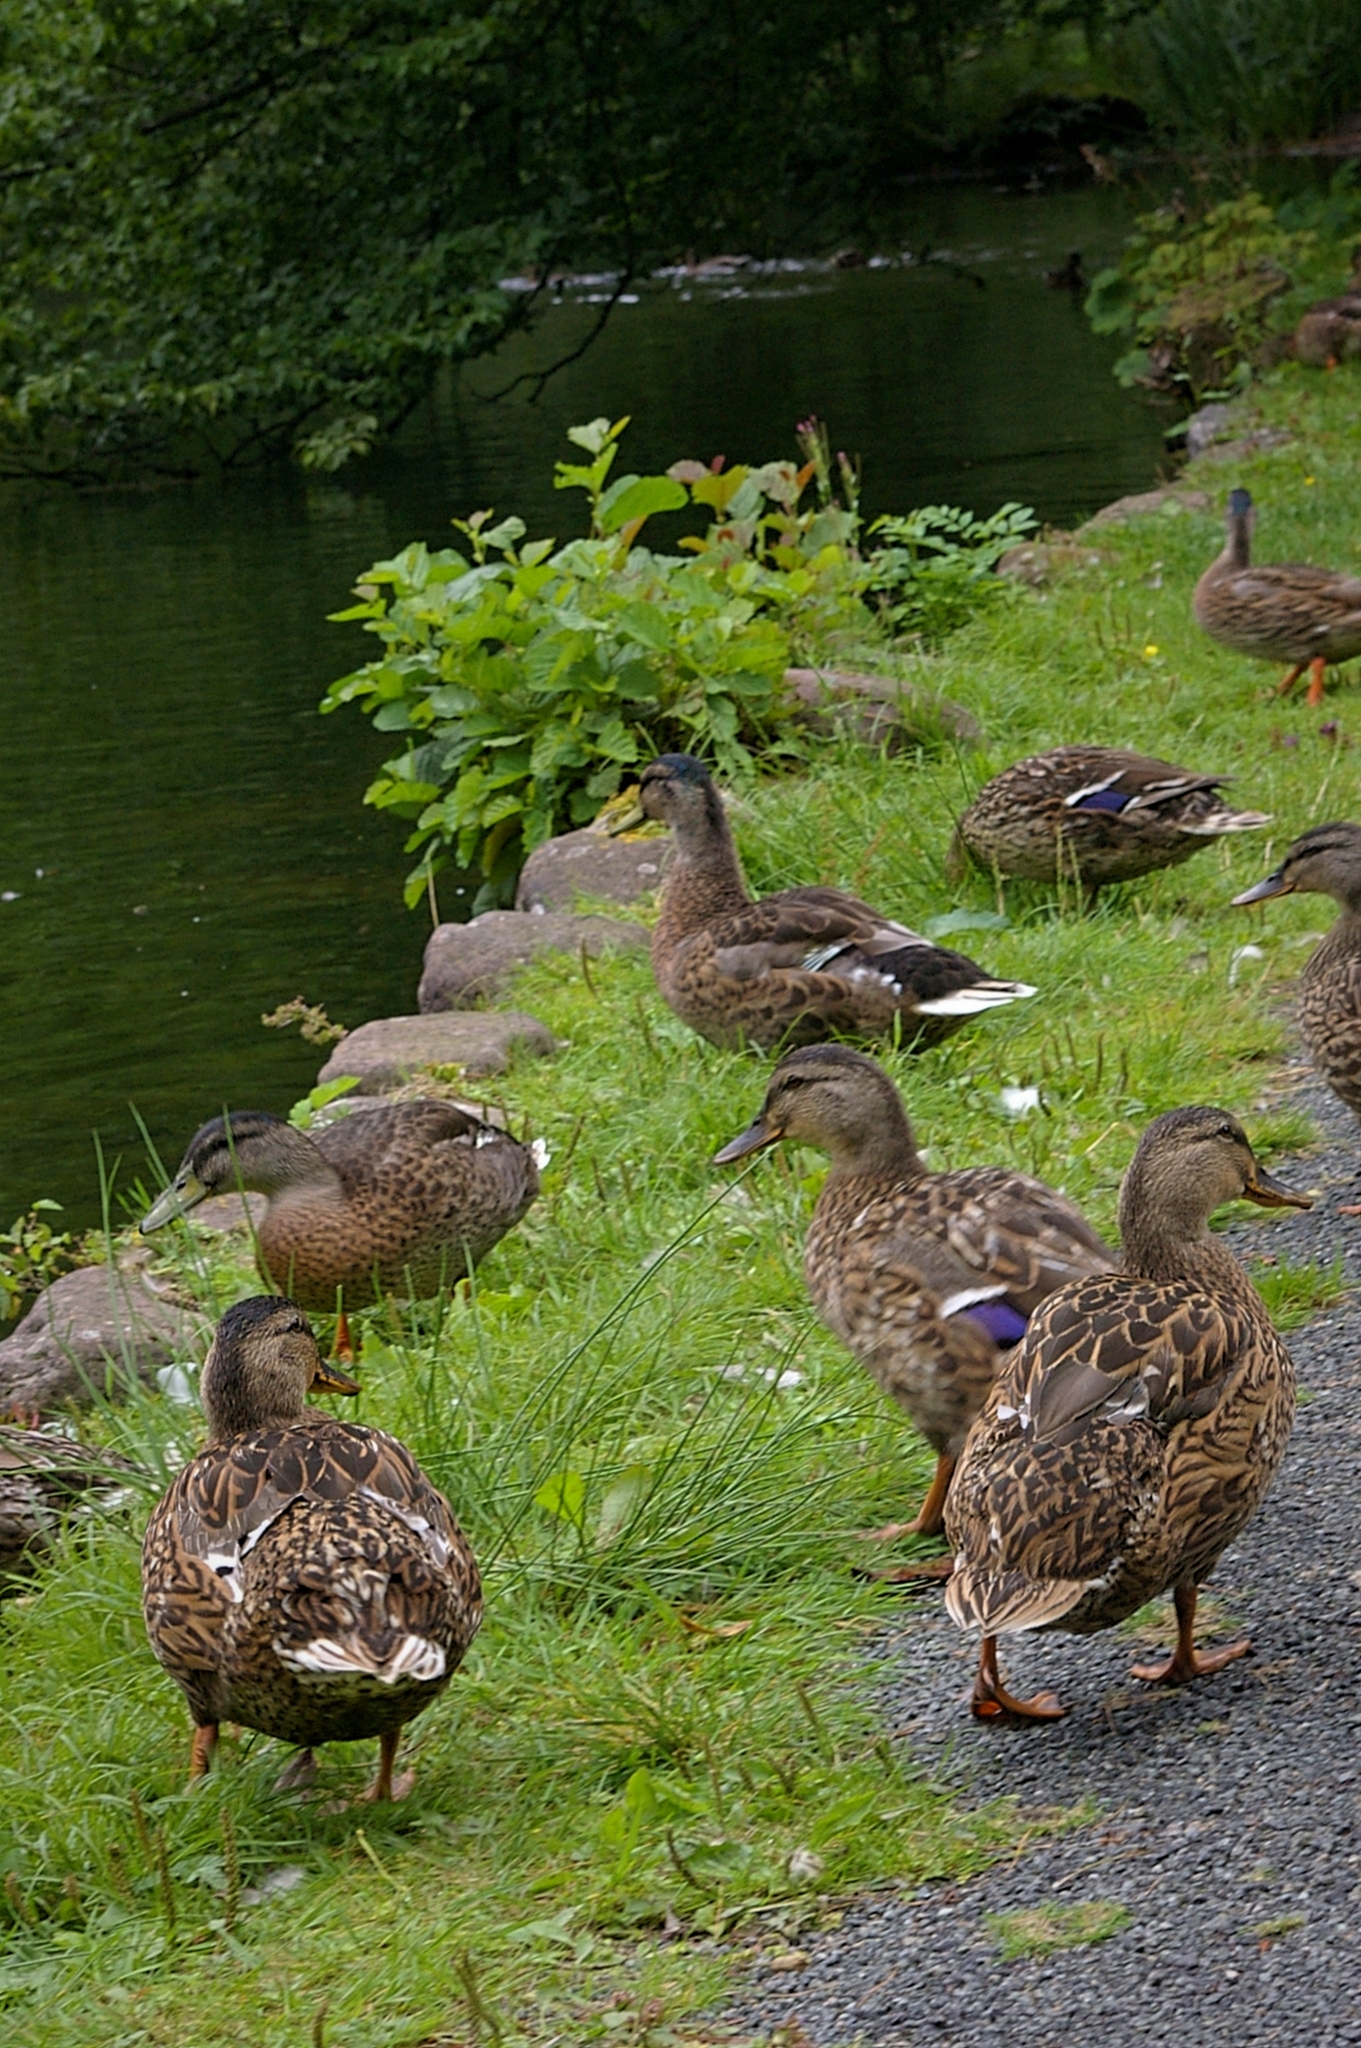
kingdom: Animalia
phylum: Chordata
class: Aves
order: Anseriformes
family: Anatidae
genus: Anas
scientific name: Anas platyrhynchos
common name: Mallard
